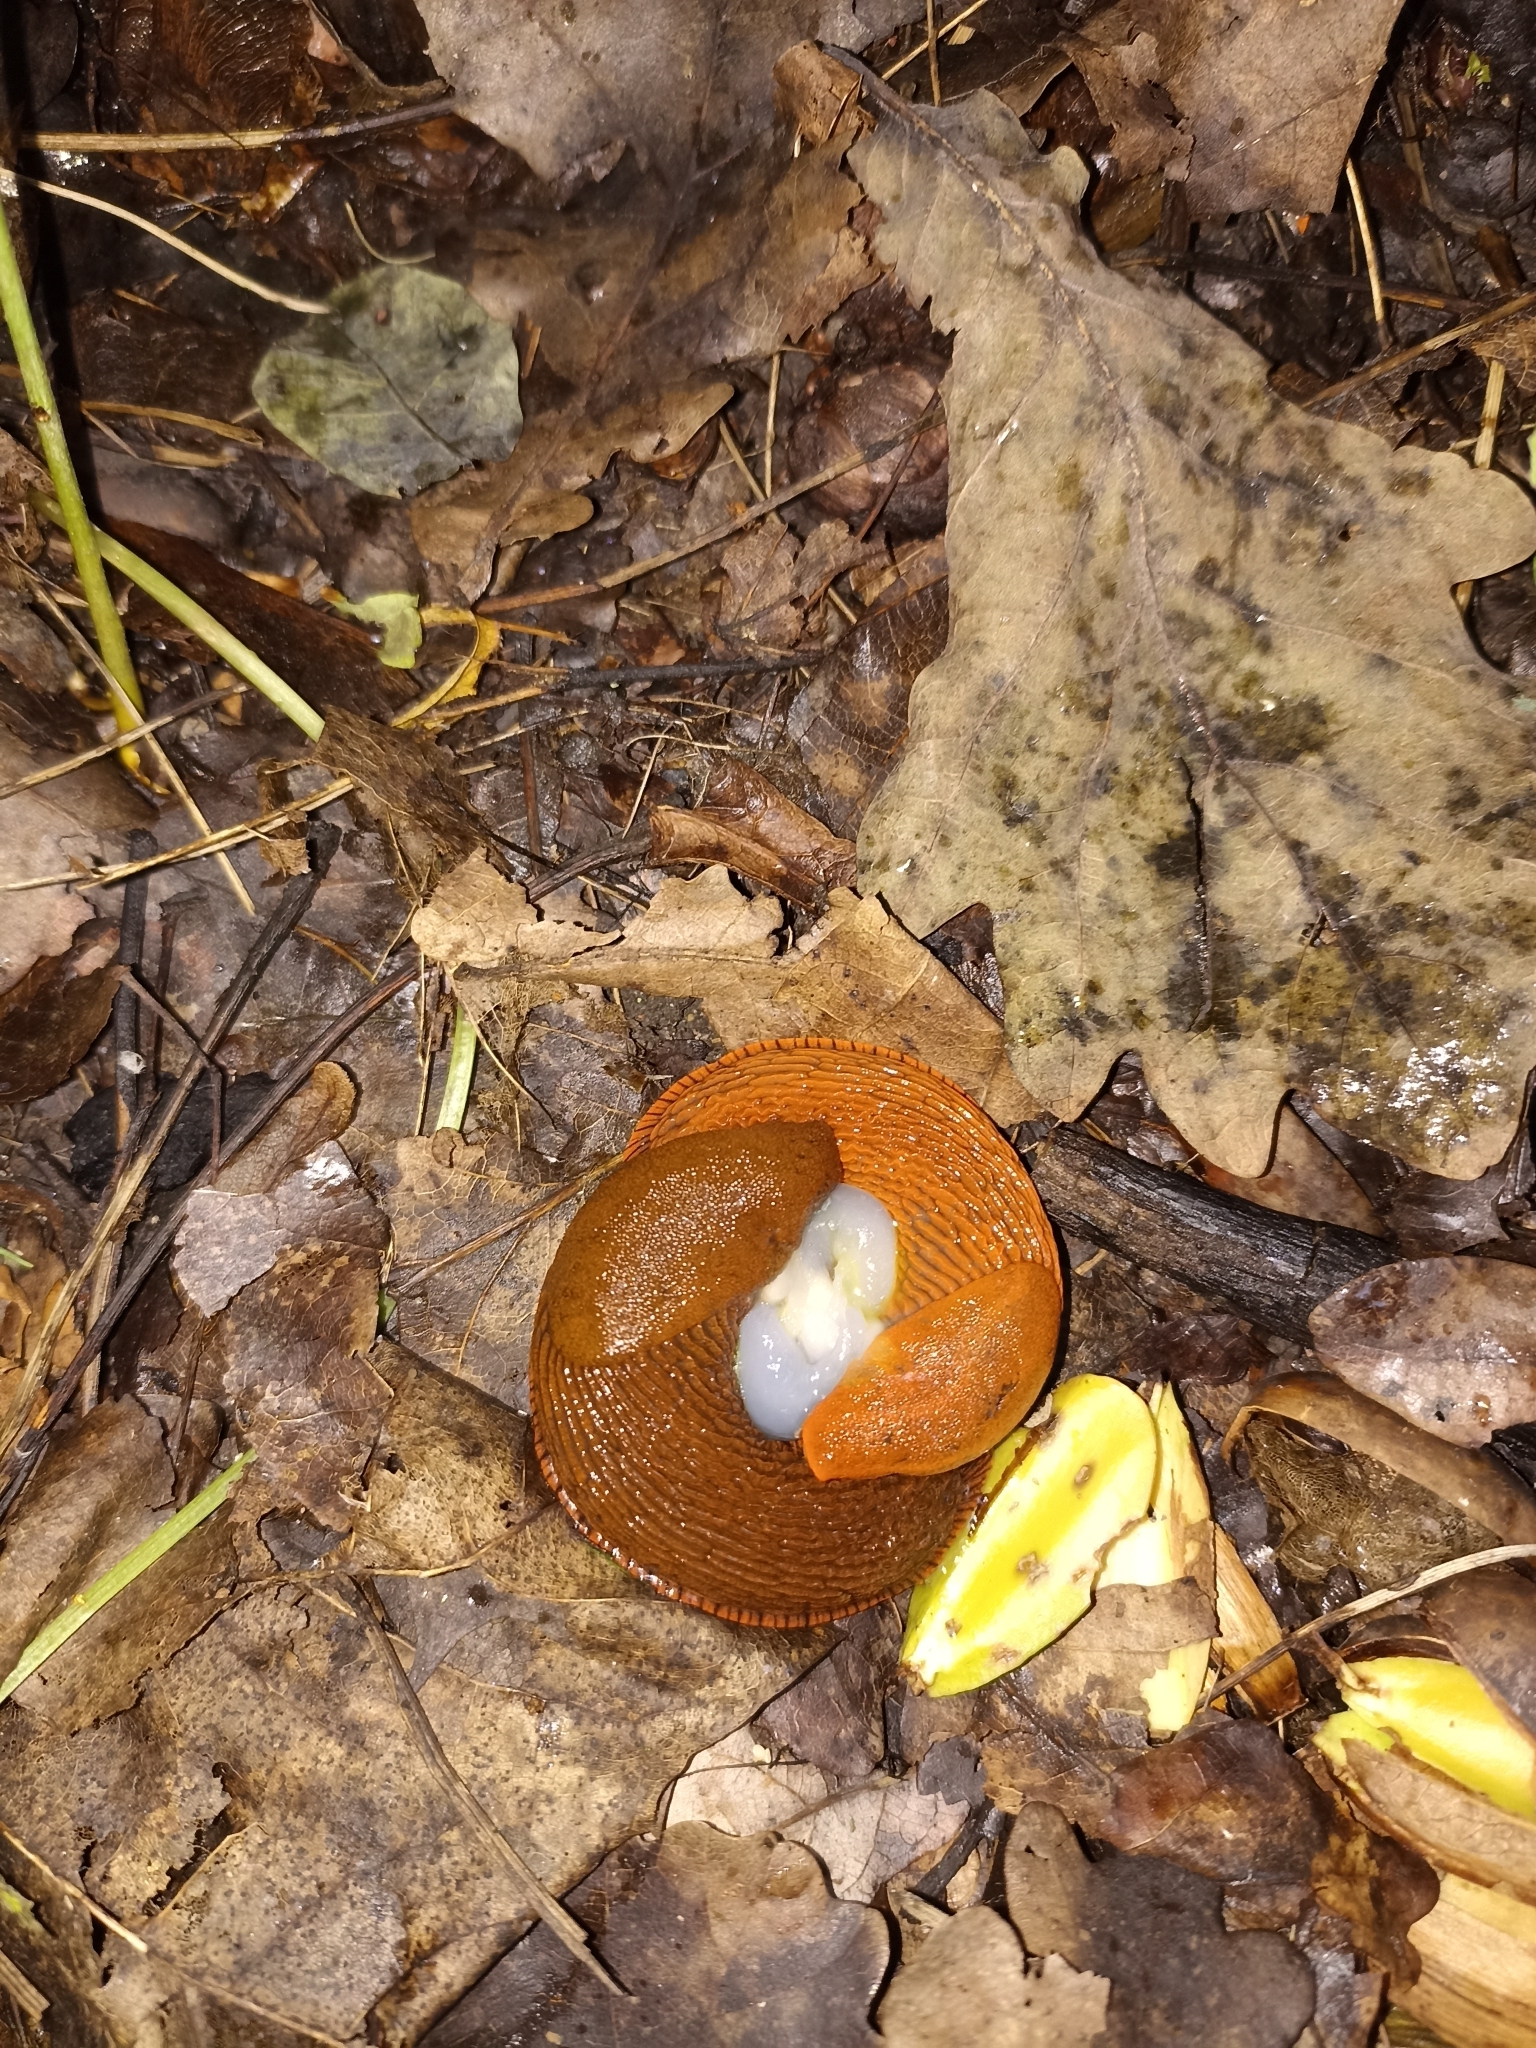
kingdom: Animalia
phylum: Mollusca
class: Gastropoda
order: Stylommatophora
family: Arionidae
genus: Arion
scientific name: Arion vulgaris
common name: Lusitanian slug
